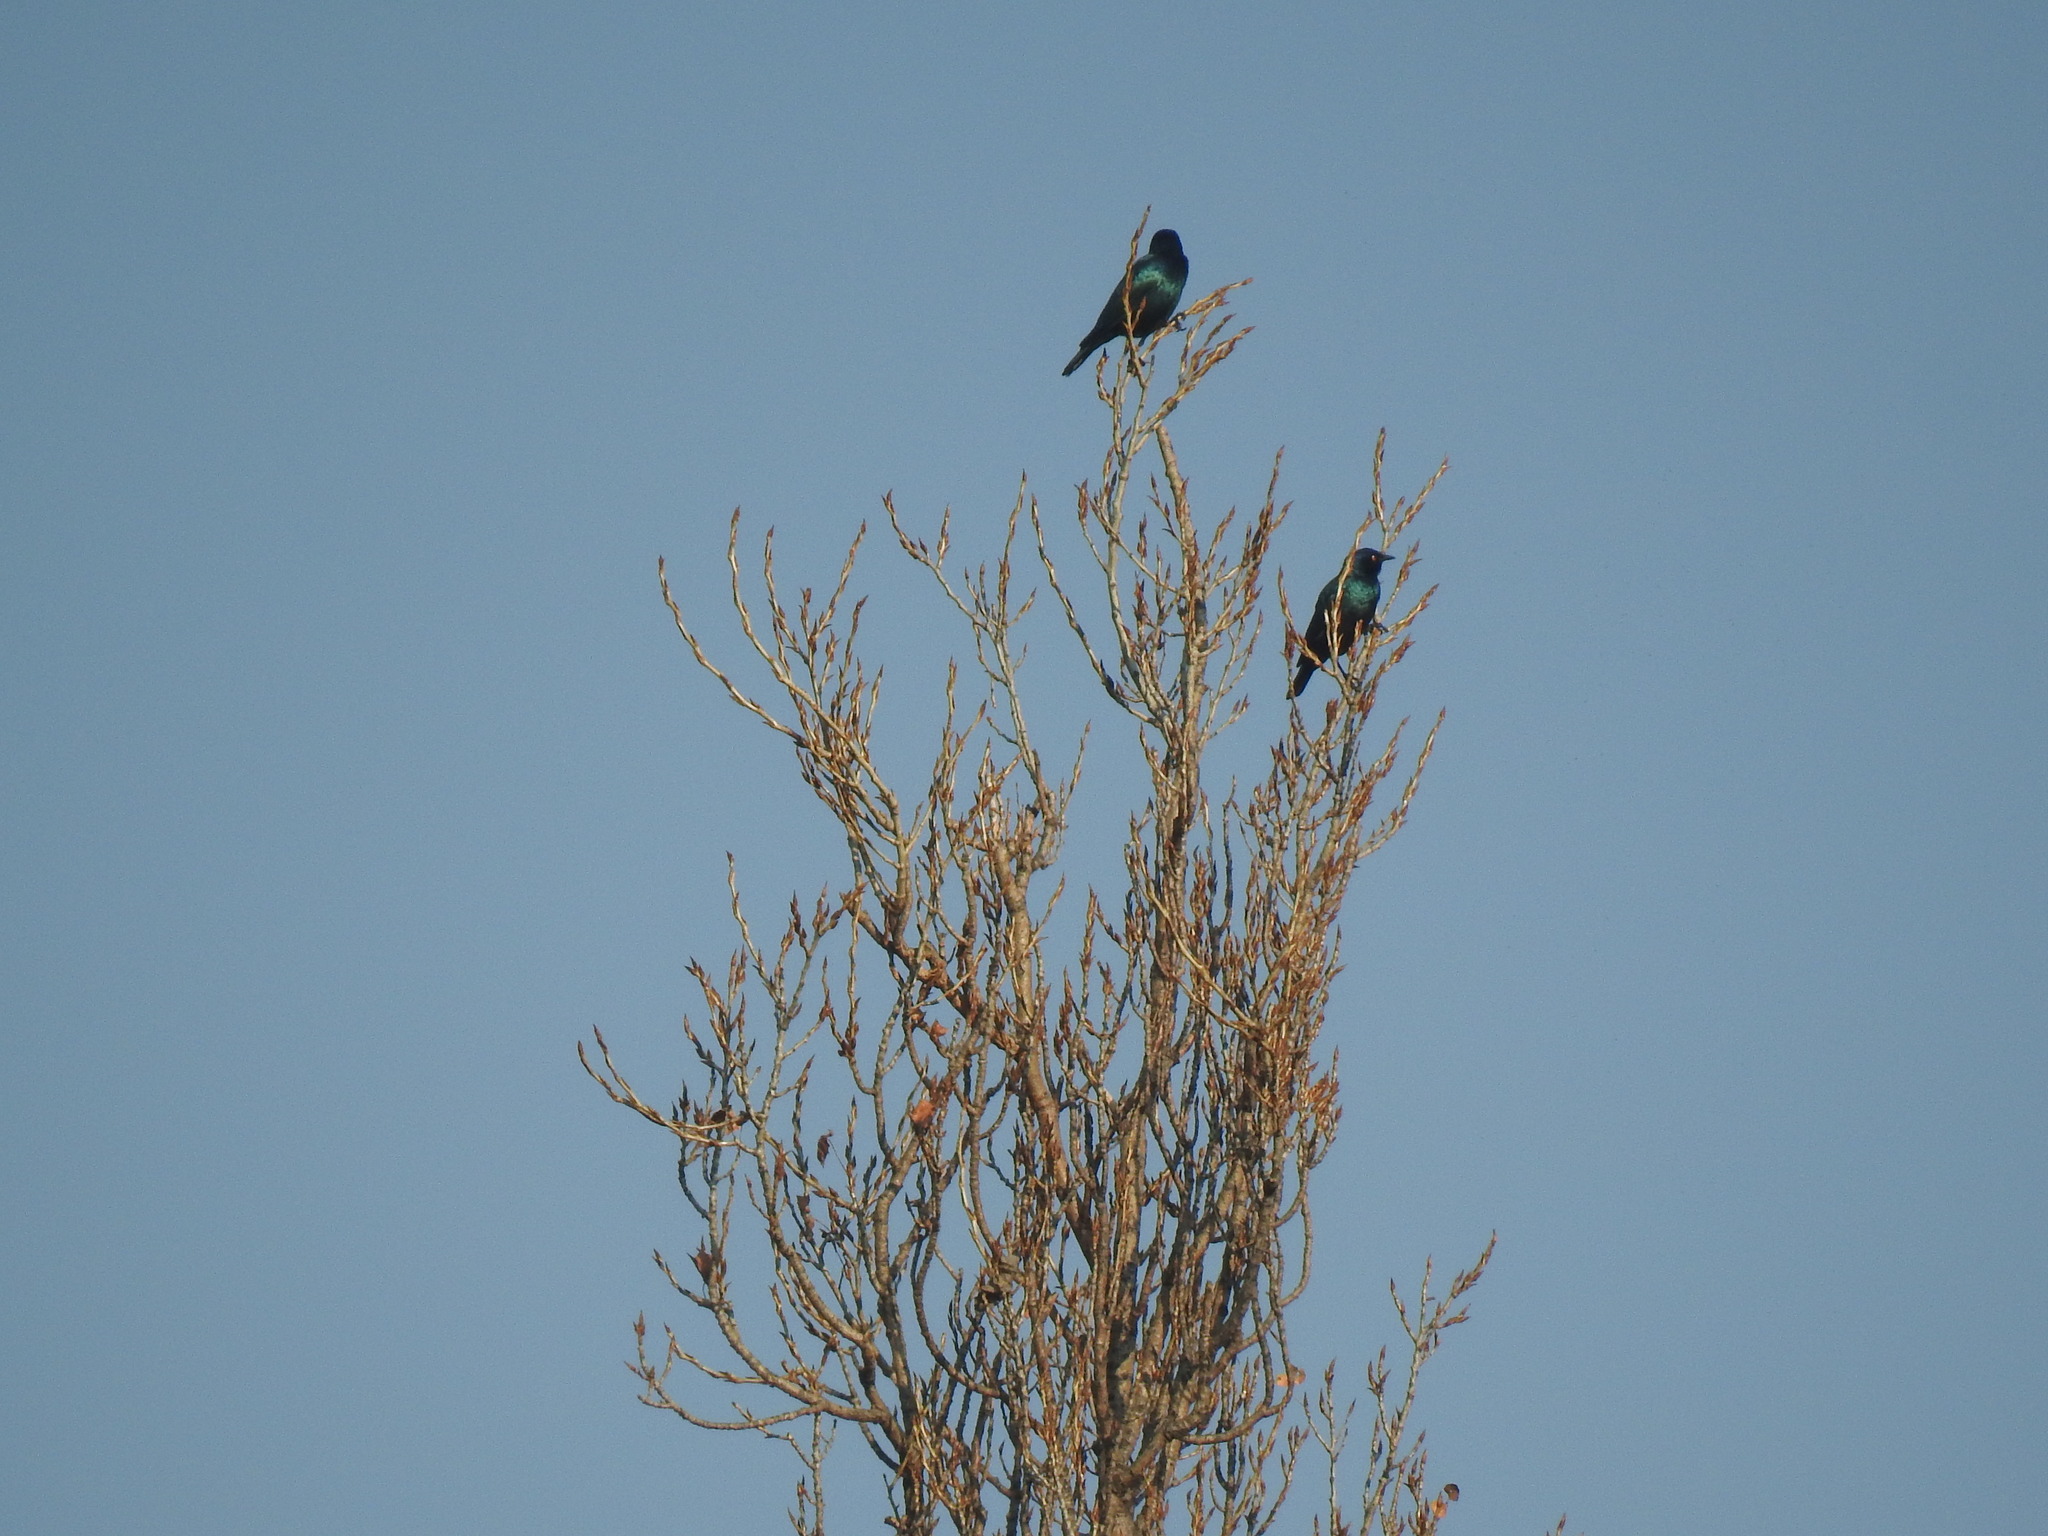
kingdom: Animalia
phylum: Chordata
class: Aves
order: Passeriformes
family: Sturnidae
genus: Lamprotornis
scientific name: Lamprotornis nitens
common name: Cape starling
